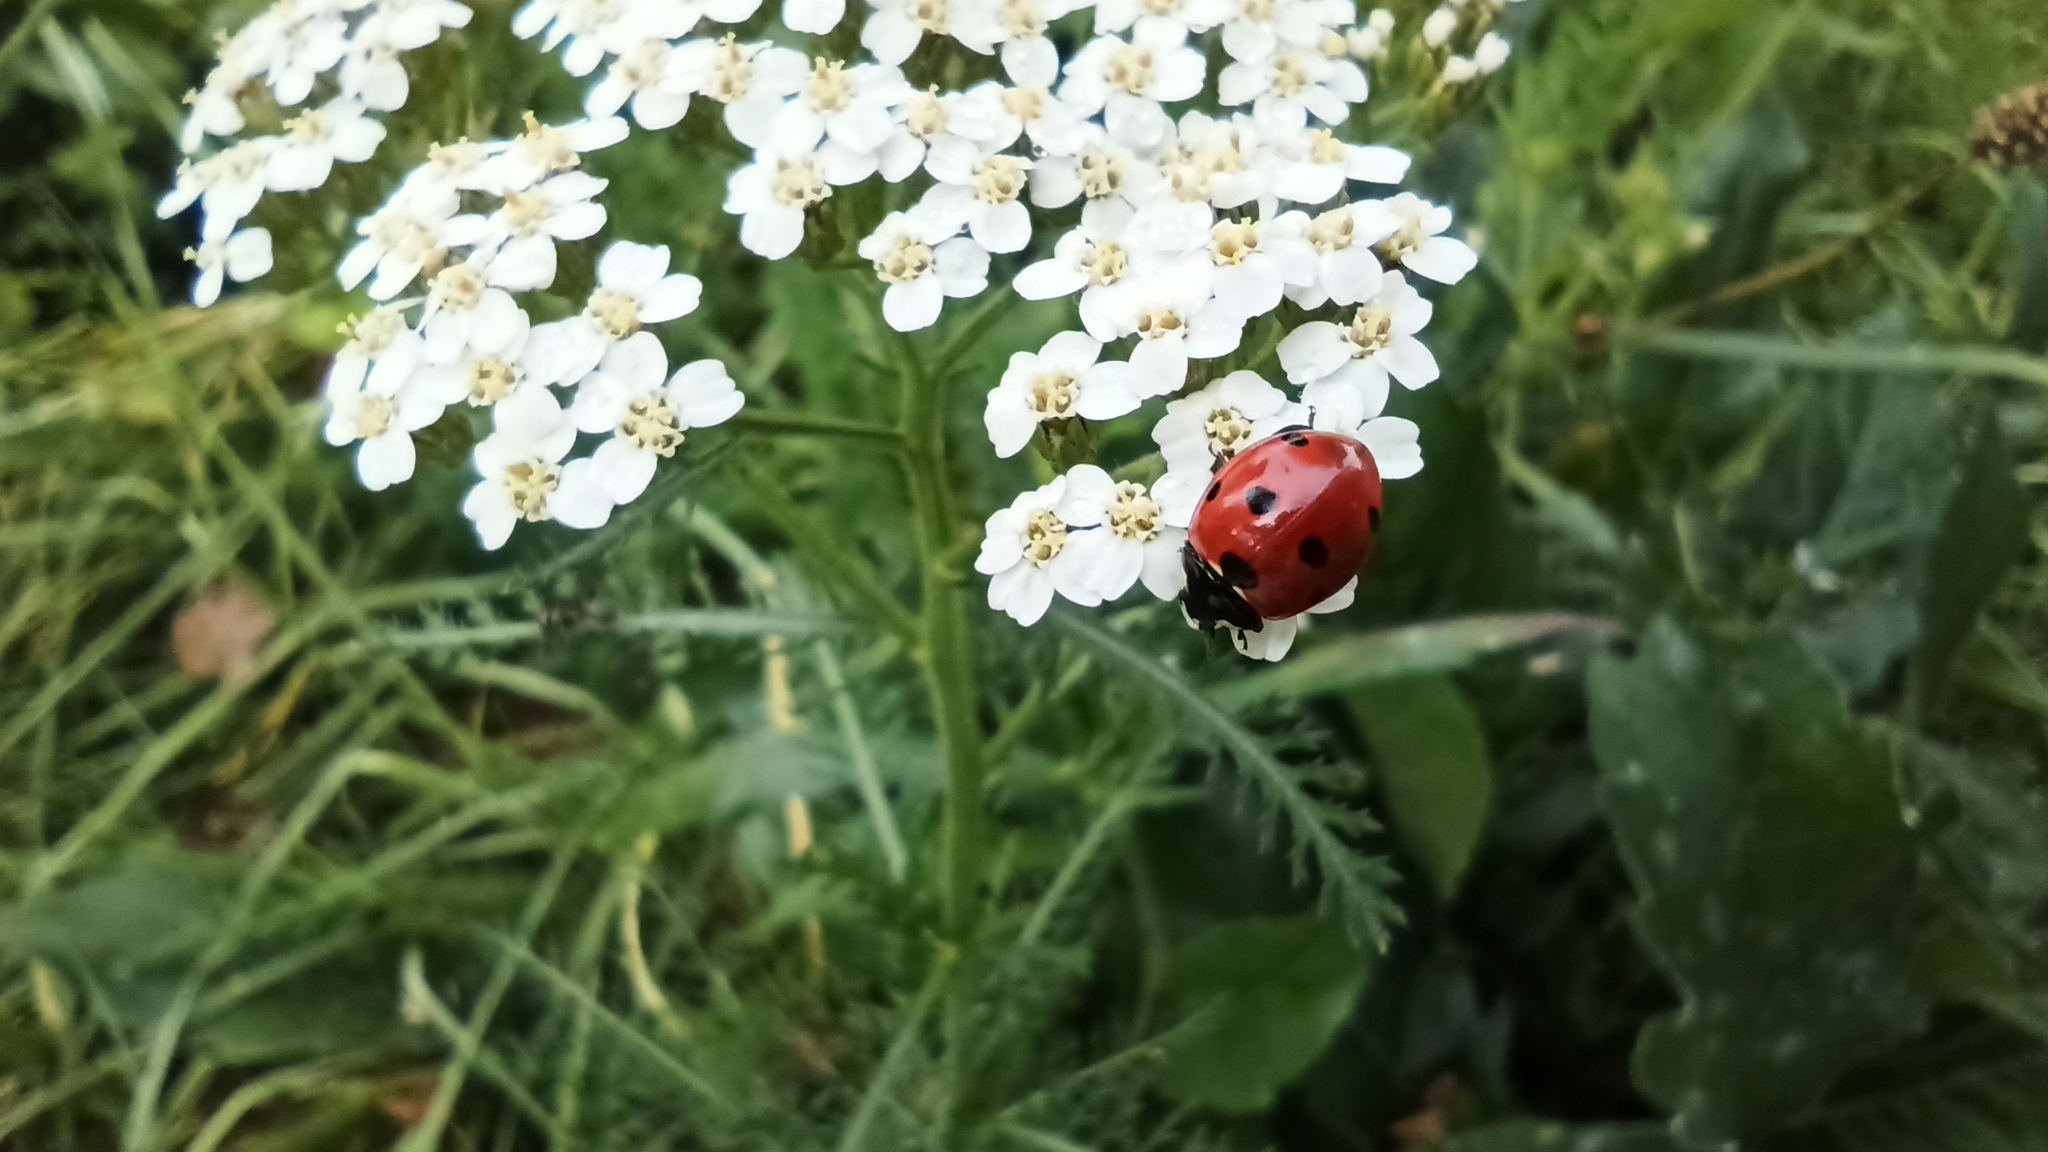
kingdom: Animalia
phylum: Arthropoda
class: Insecta
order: Coleoptera
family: Coccinellidae
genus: Coccinella
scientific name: Coccinella septempunctata
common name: Sevenspotted lady beetle
